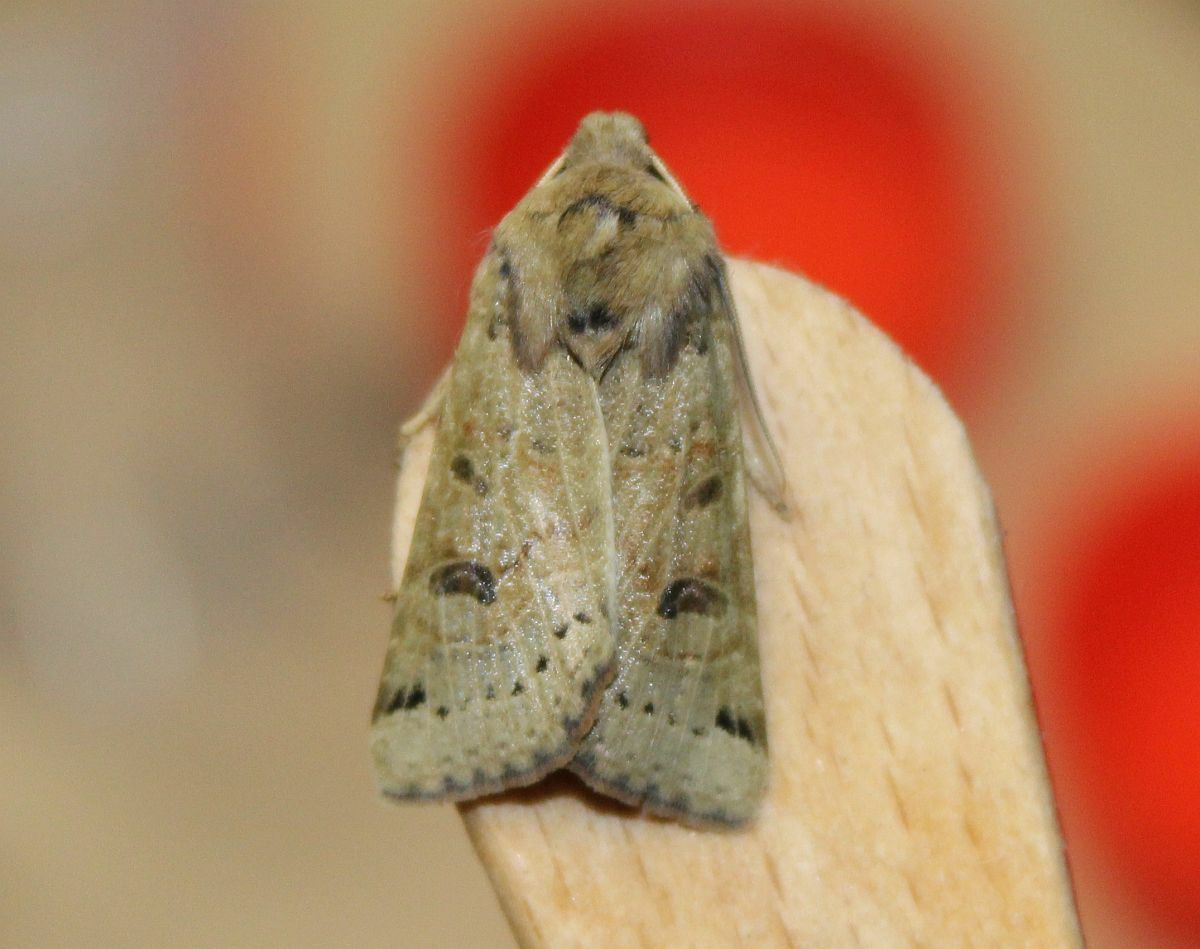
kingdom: Animalia
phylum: Arthropoda
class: Insecta
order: Lepidoptera
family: Noctuidae
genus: Agrochola
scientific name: Agrochola lunosa
